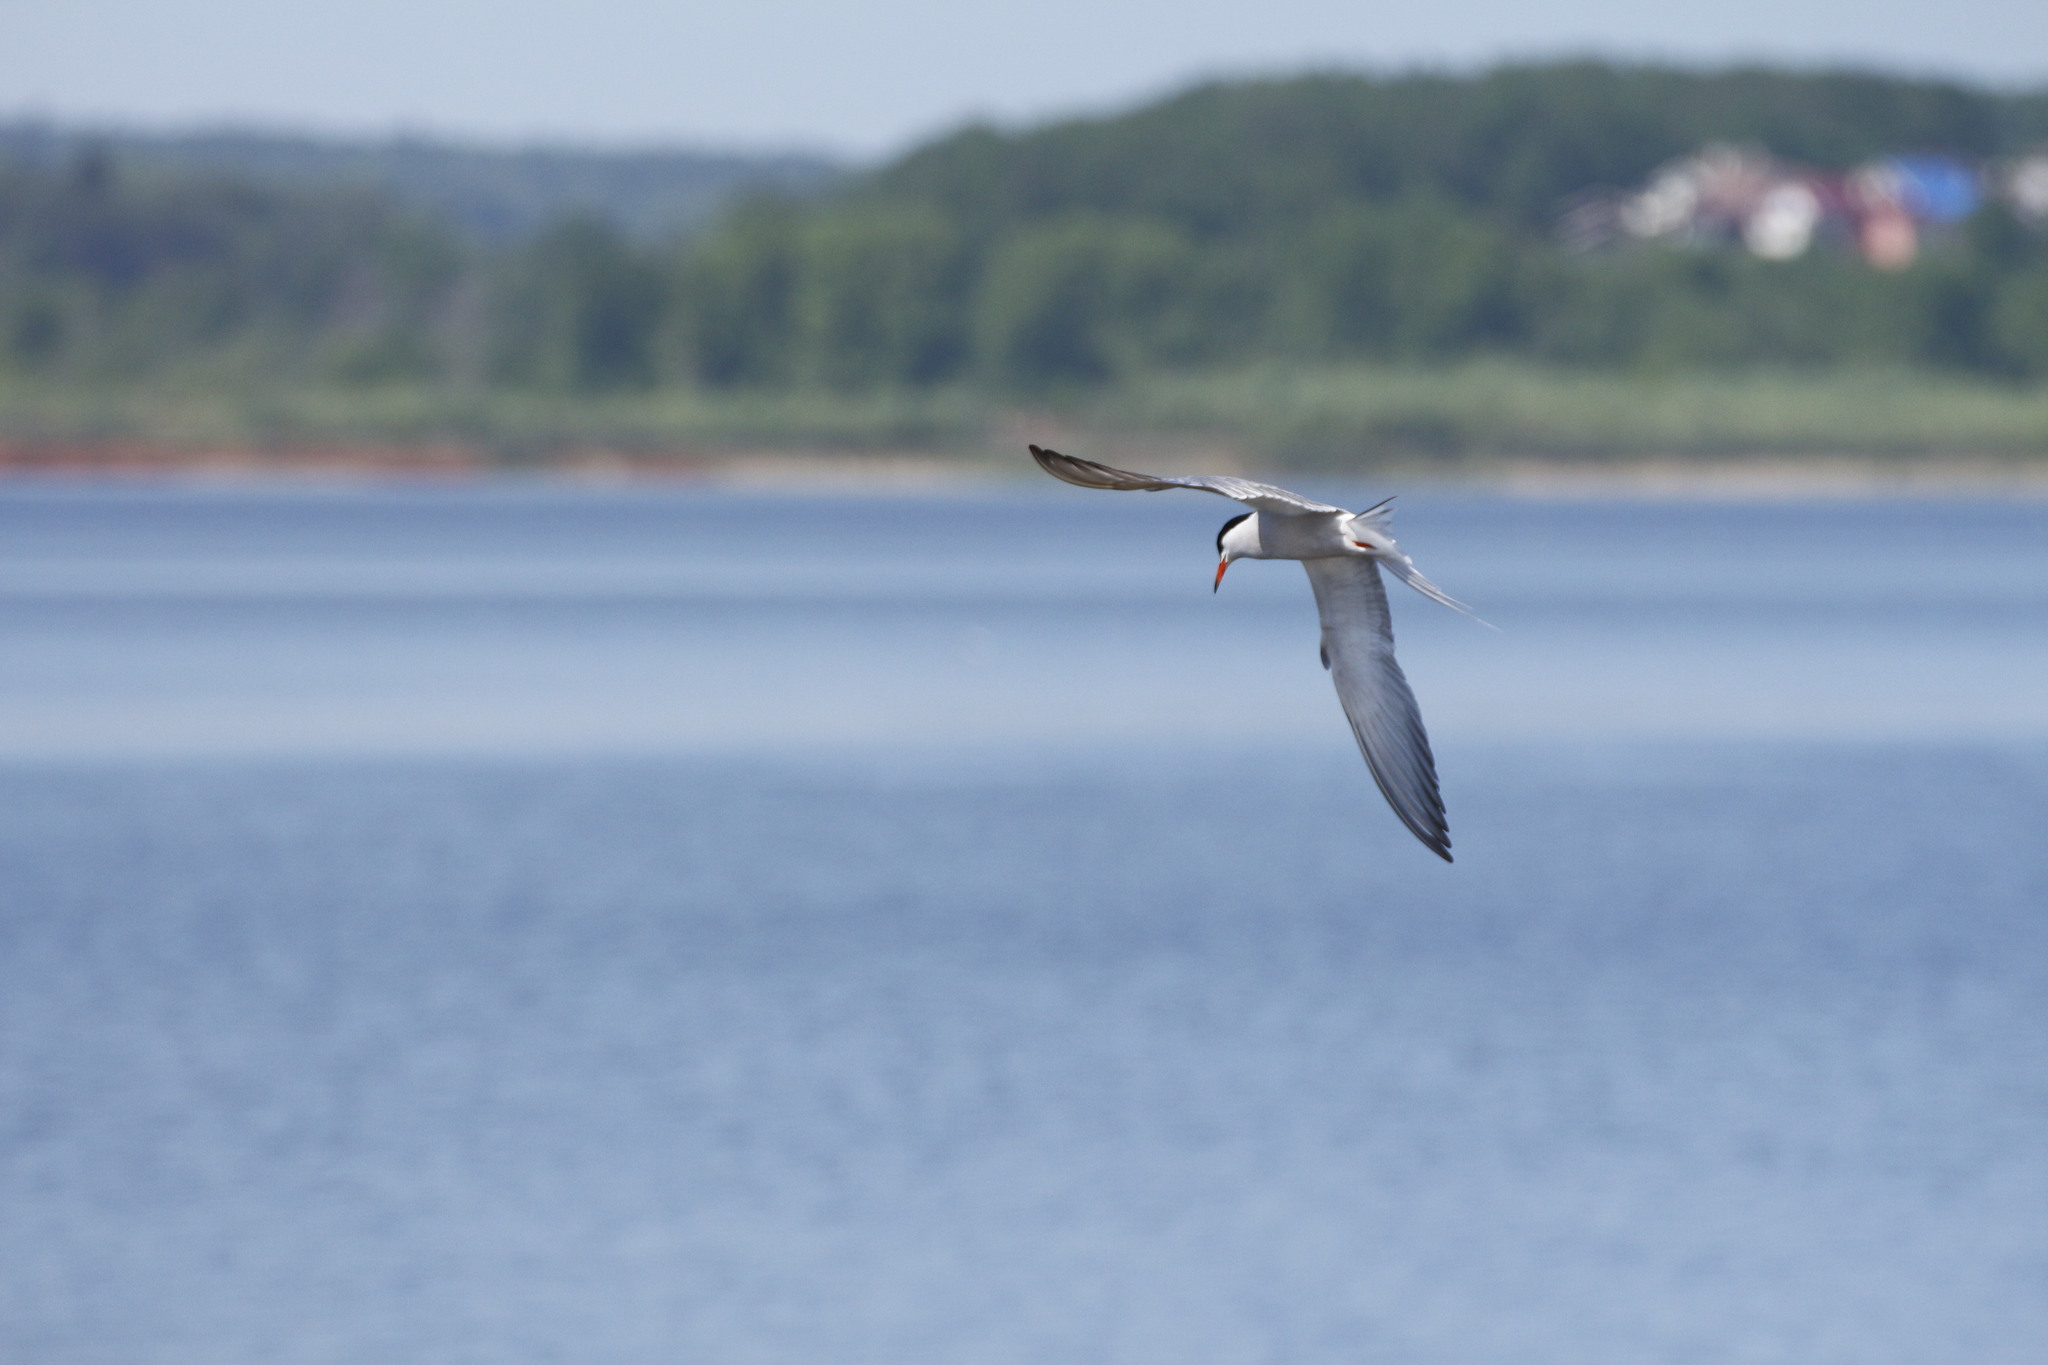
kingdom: Animalia
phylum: Chordata
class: Aves
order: Charadriiformes
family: Laridae
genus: Sterna
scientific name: Sterna hirundo
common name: Common tern
